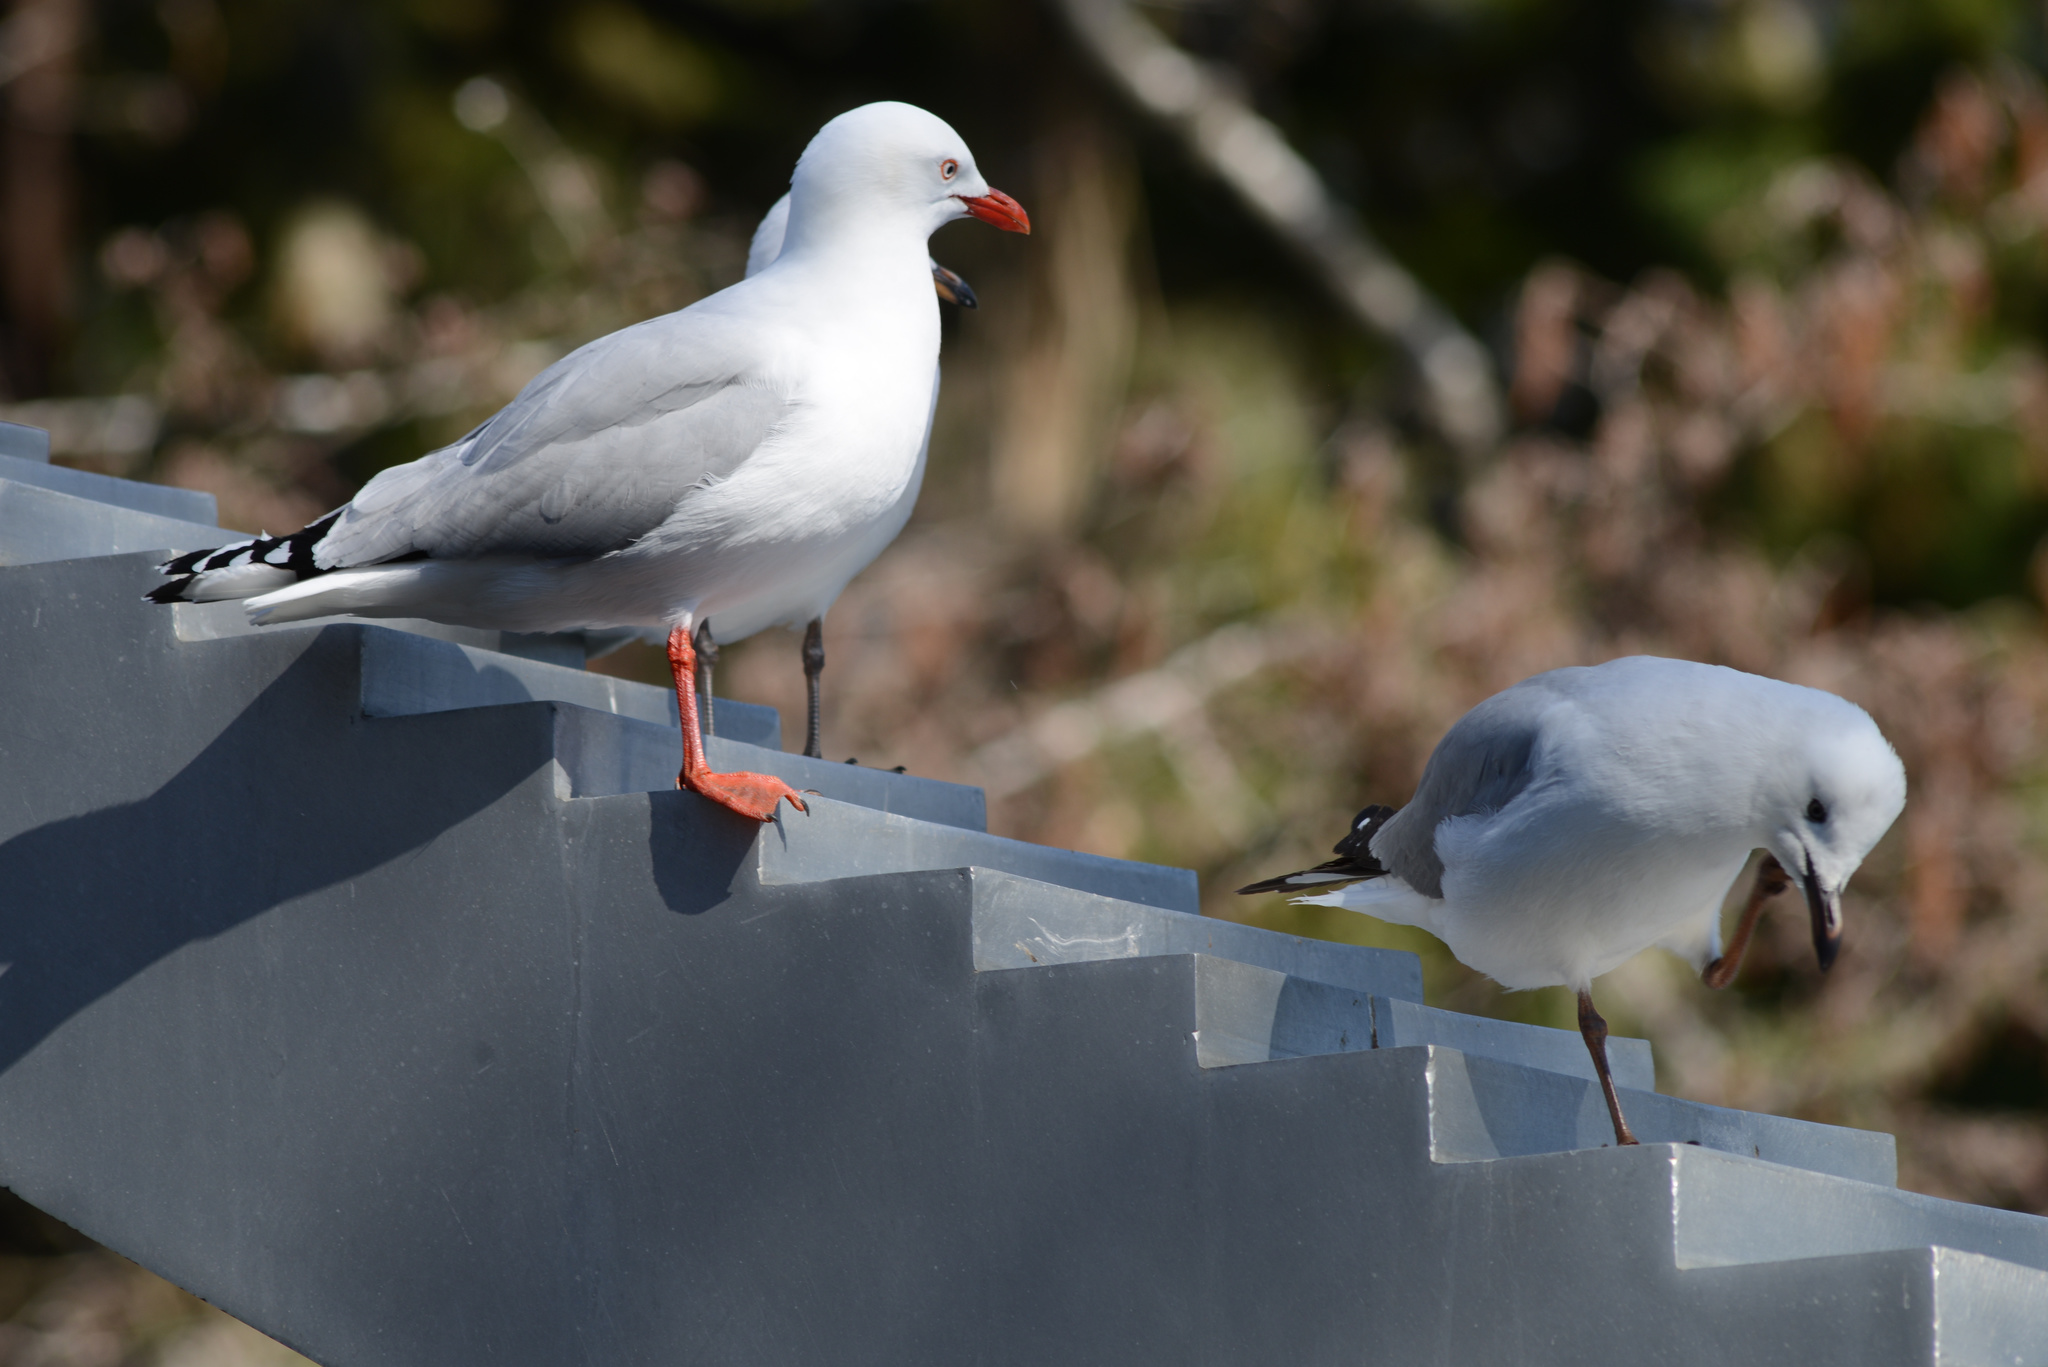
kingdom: Animalia
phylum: Chordata
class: Aves
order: Charadriiformes
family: Laridae
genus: Chroicocephalus
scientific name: Chroicocephalus novaehollandiae
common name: Silver gull
